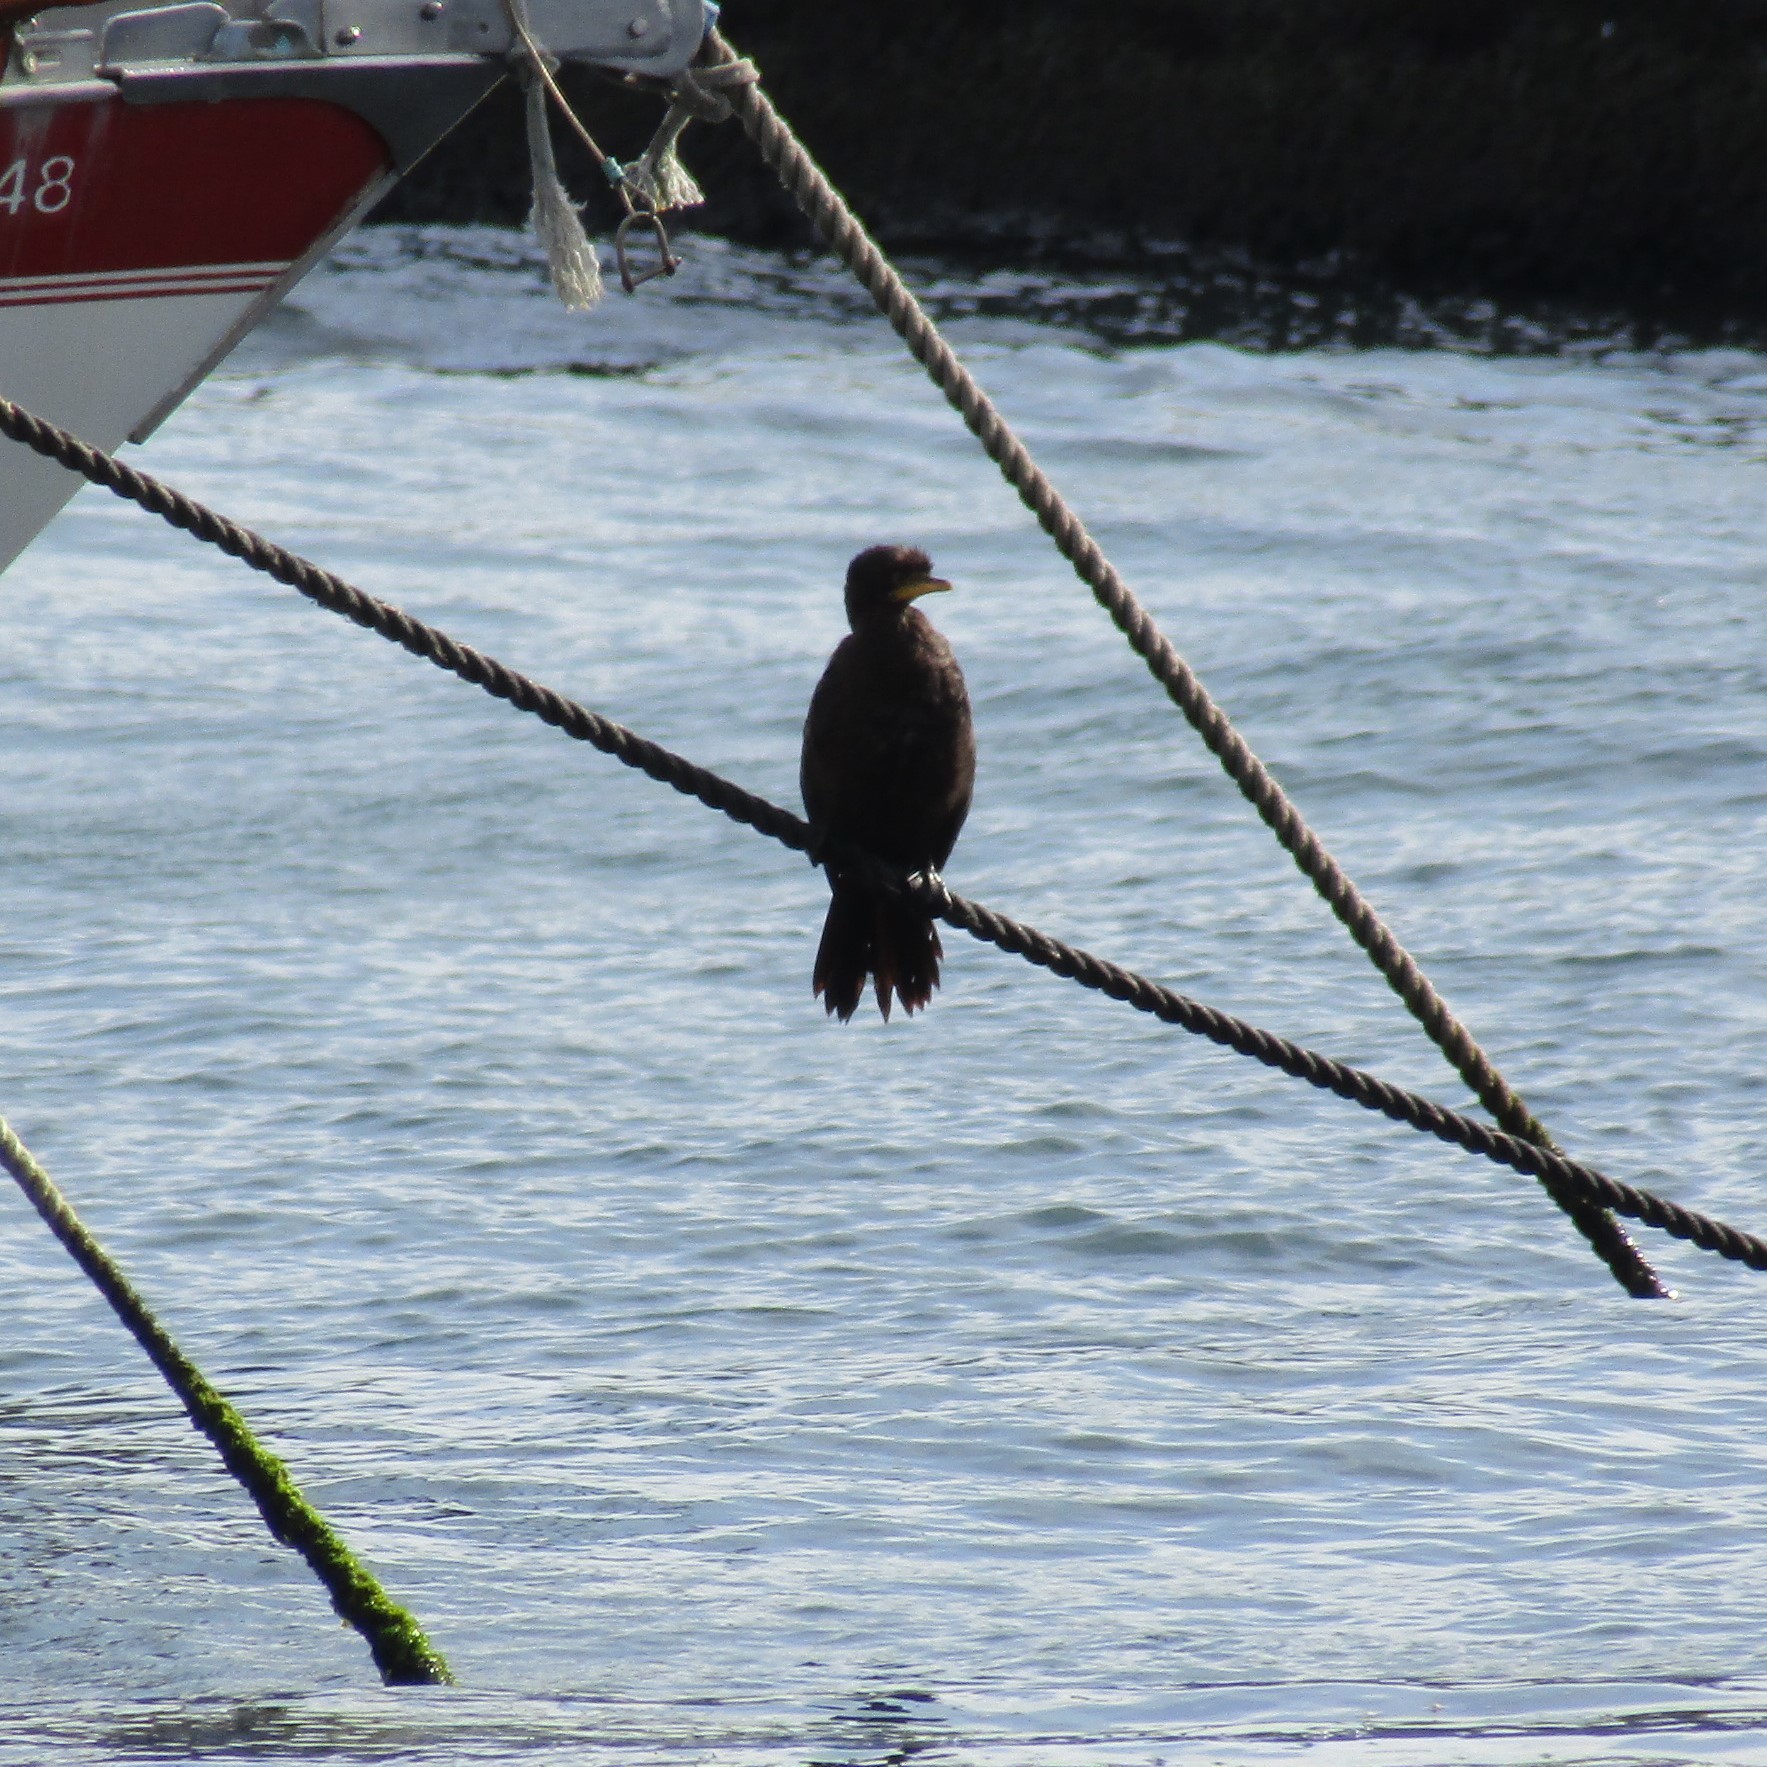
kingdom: Animalia
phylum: Chordata
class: Aves
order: Suliformes
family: Phalacrocoracidae
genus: Microcarbo
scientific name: Microcarbo melanoleucos
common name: Little pied cormorant
